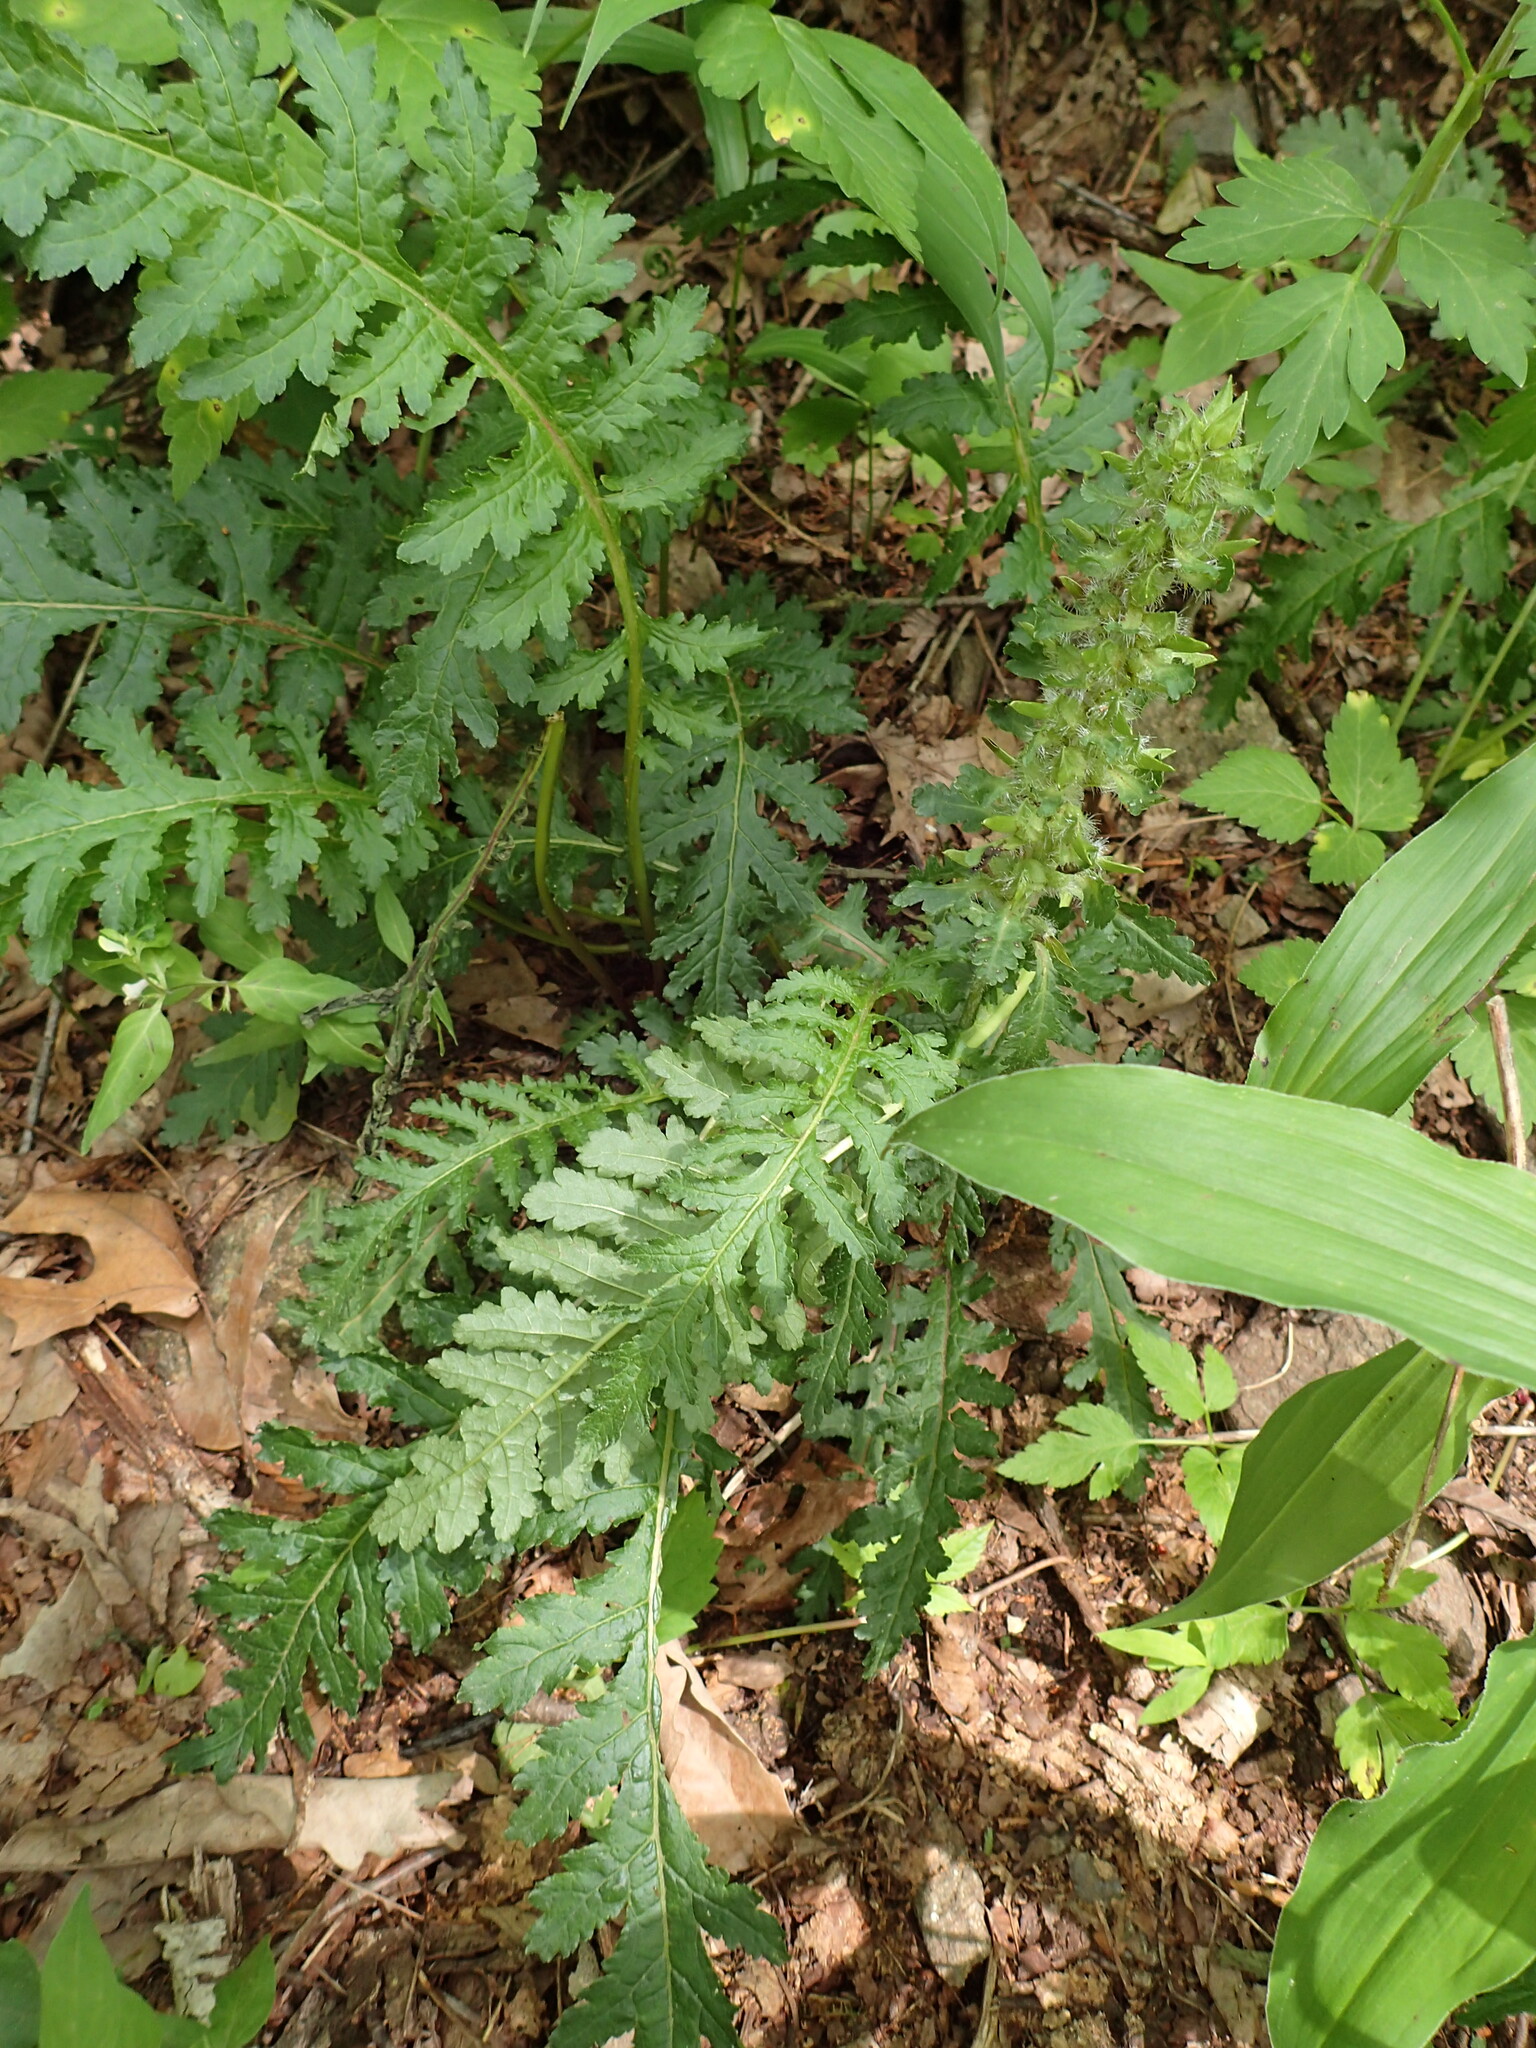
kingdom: Plantae
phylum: Tracheophyta
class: Magnoliopsida
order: Lamiales
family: Orobanchaceae
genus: Pedicularis
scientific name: Pedicularis canadensis
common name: Early lousewort
